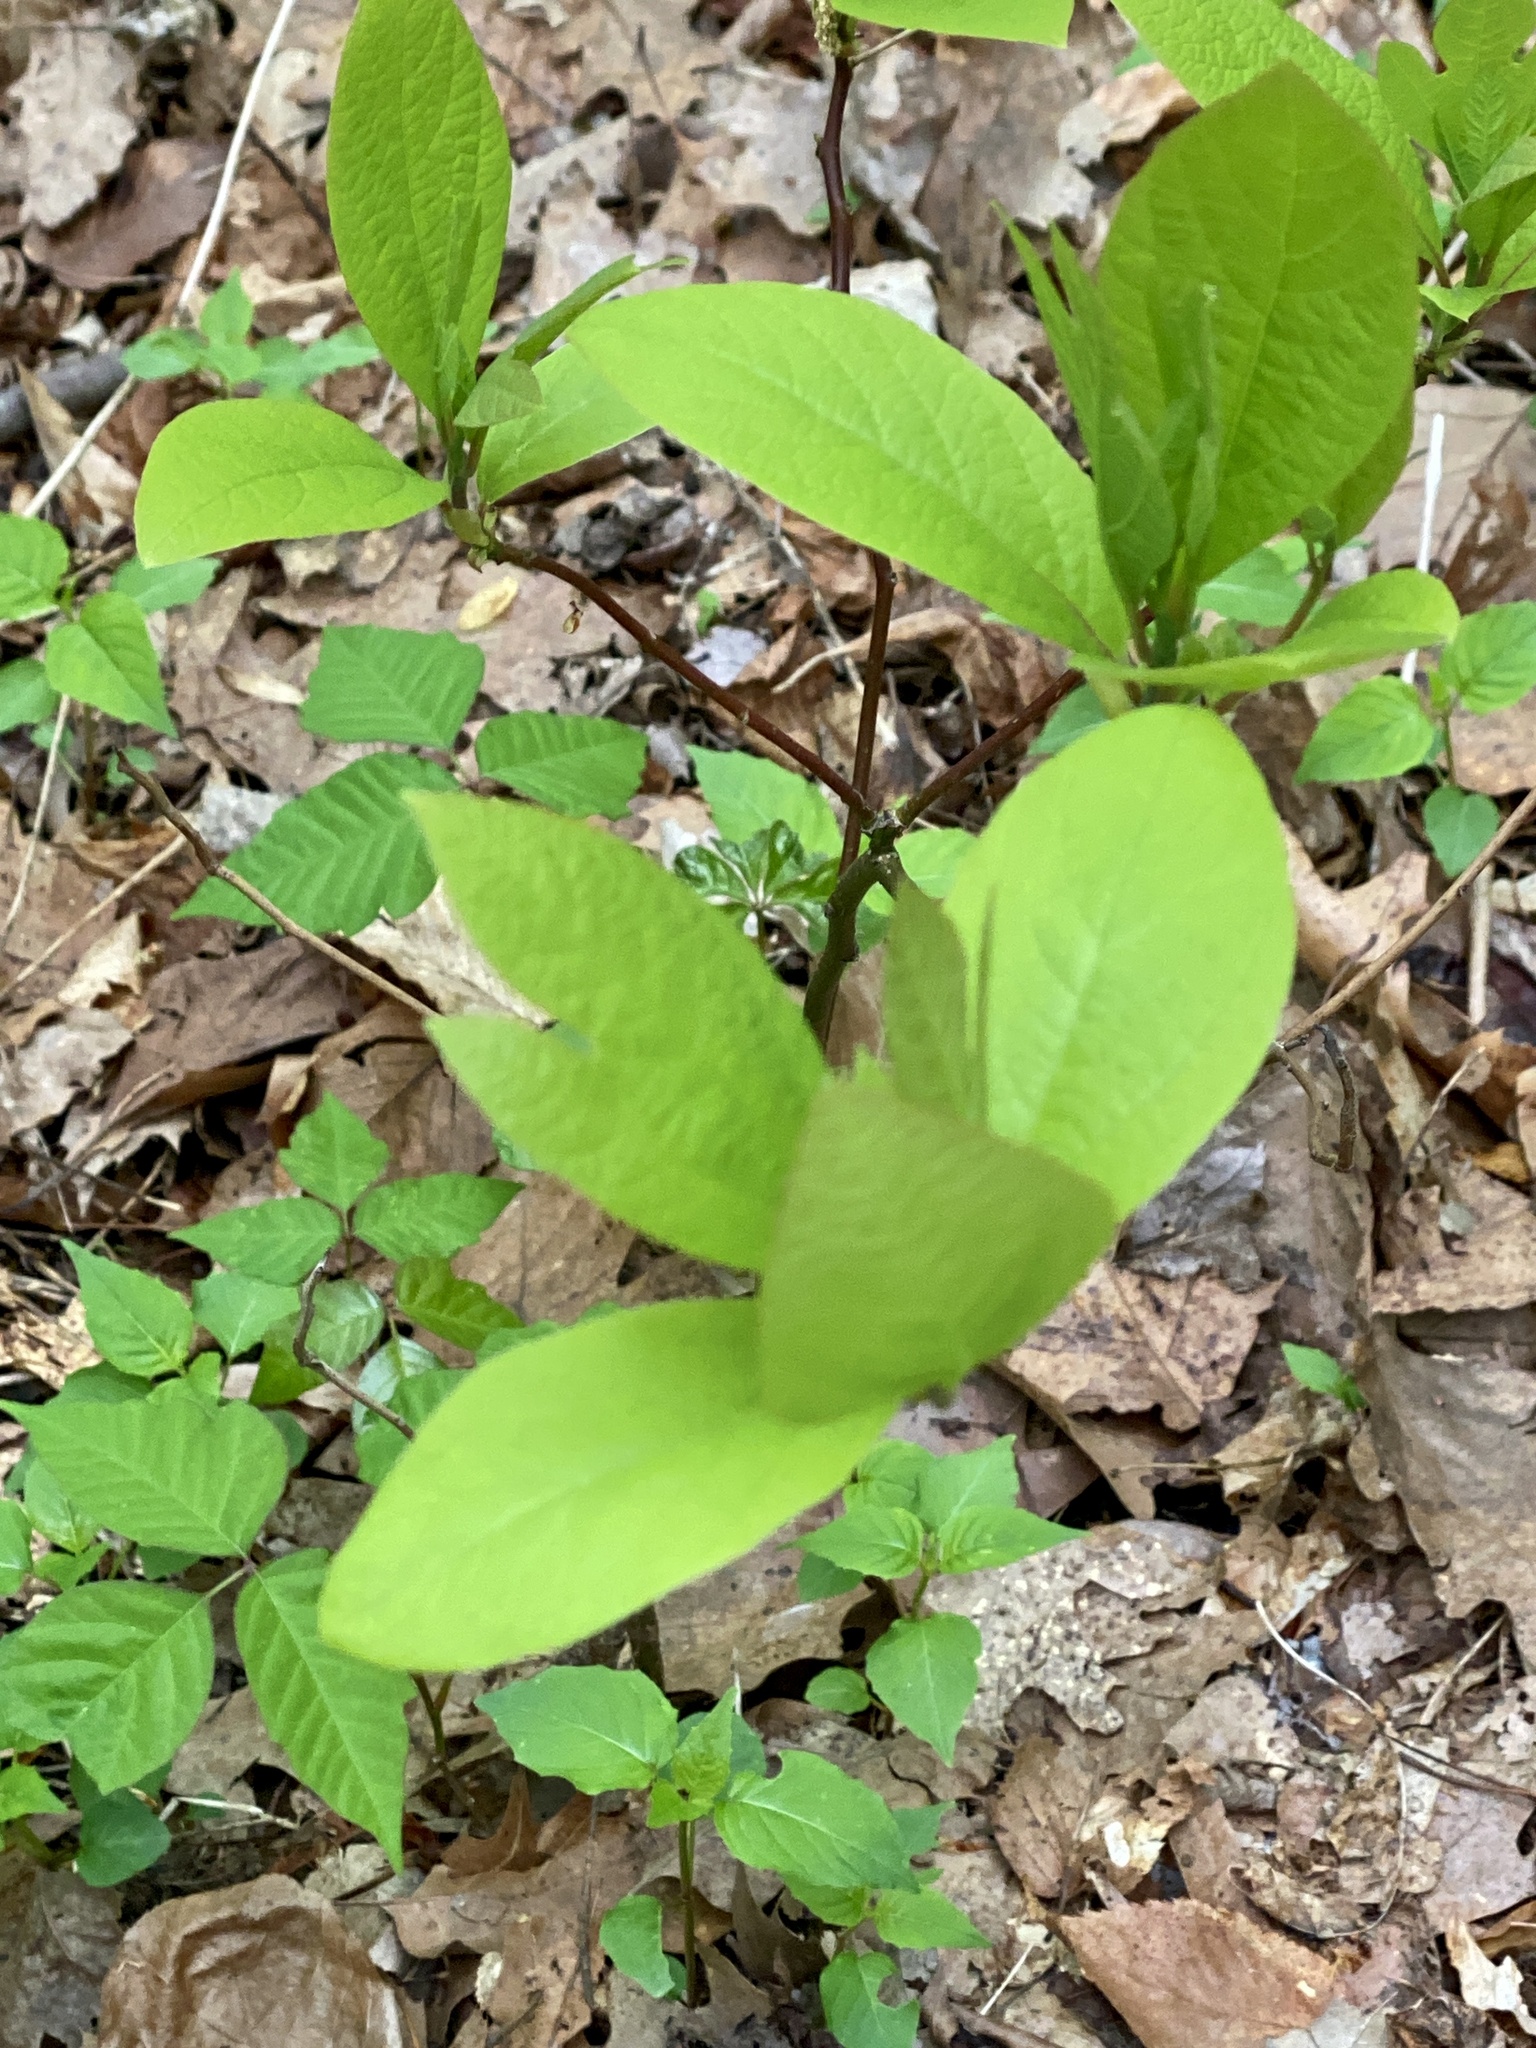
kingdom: Plantae
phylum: Tracheophyta
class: Magnoliopsida
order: Laurales
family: Lauraceae
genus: Sassafras
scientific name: Sassafras albidum
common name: Sassafras
